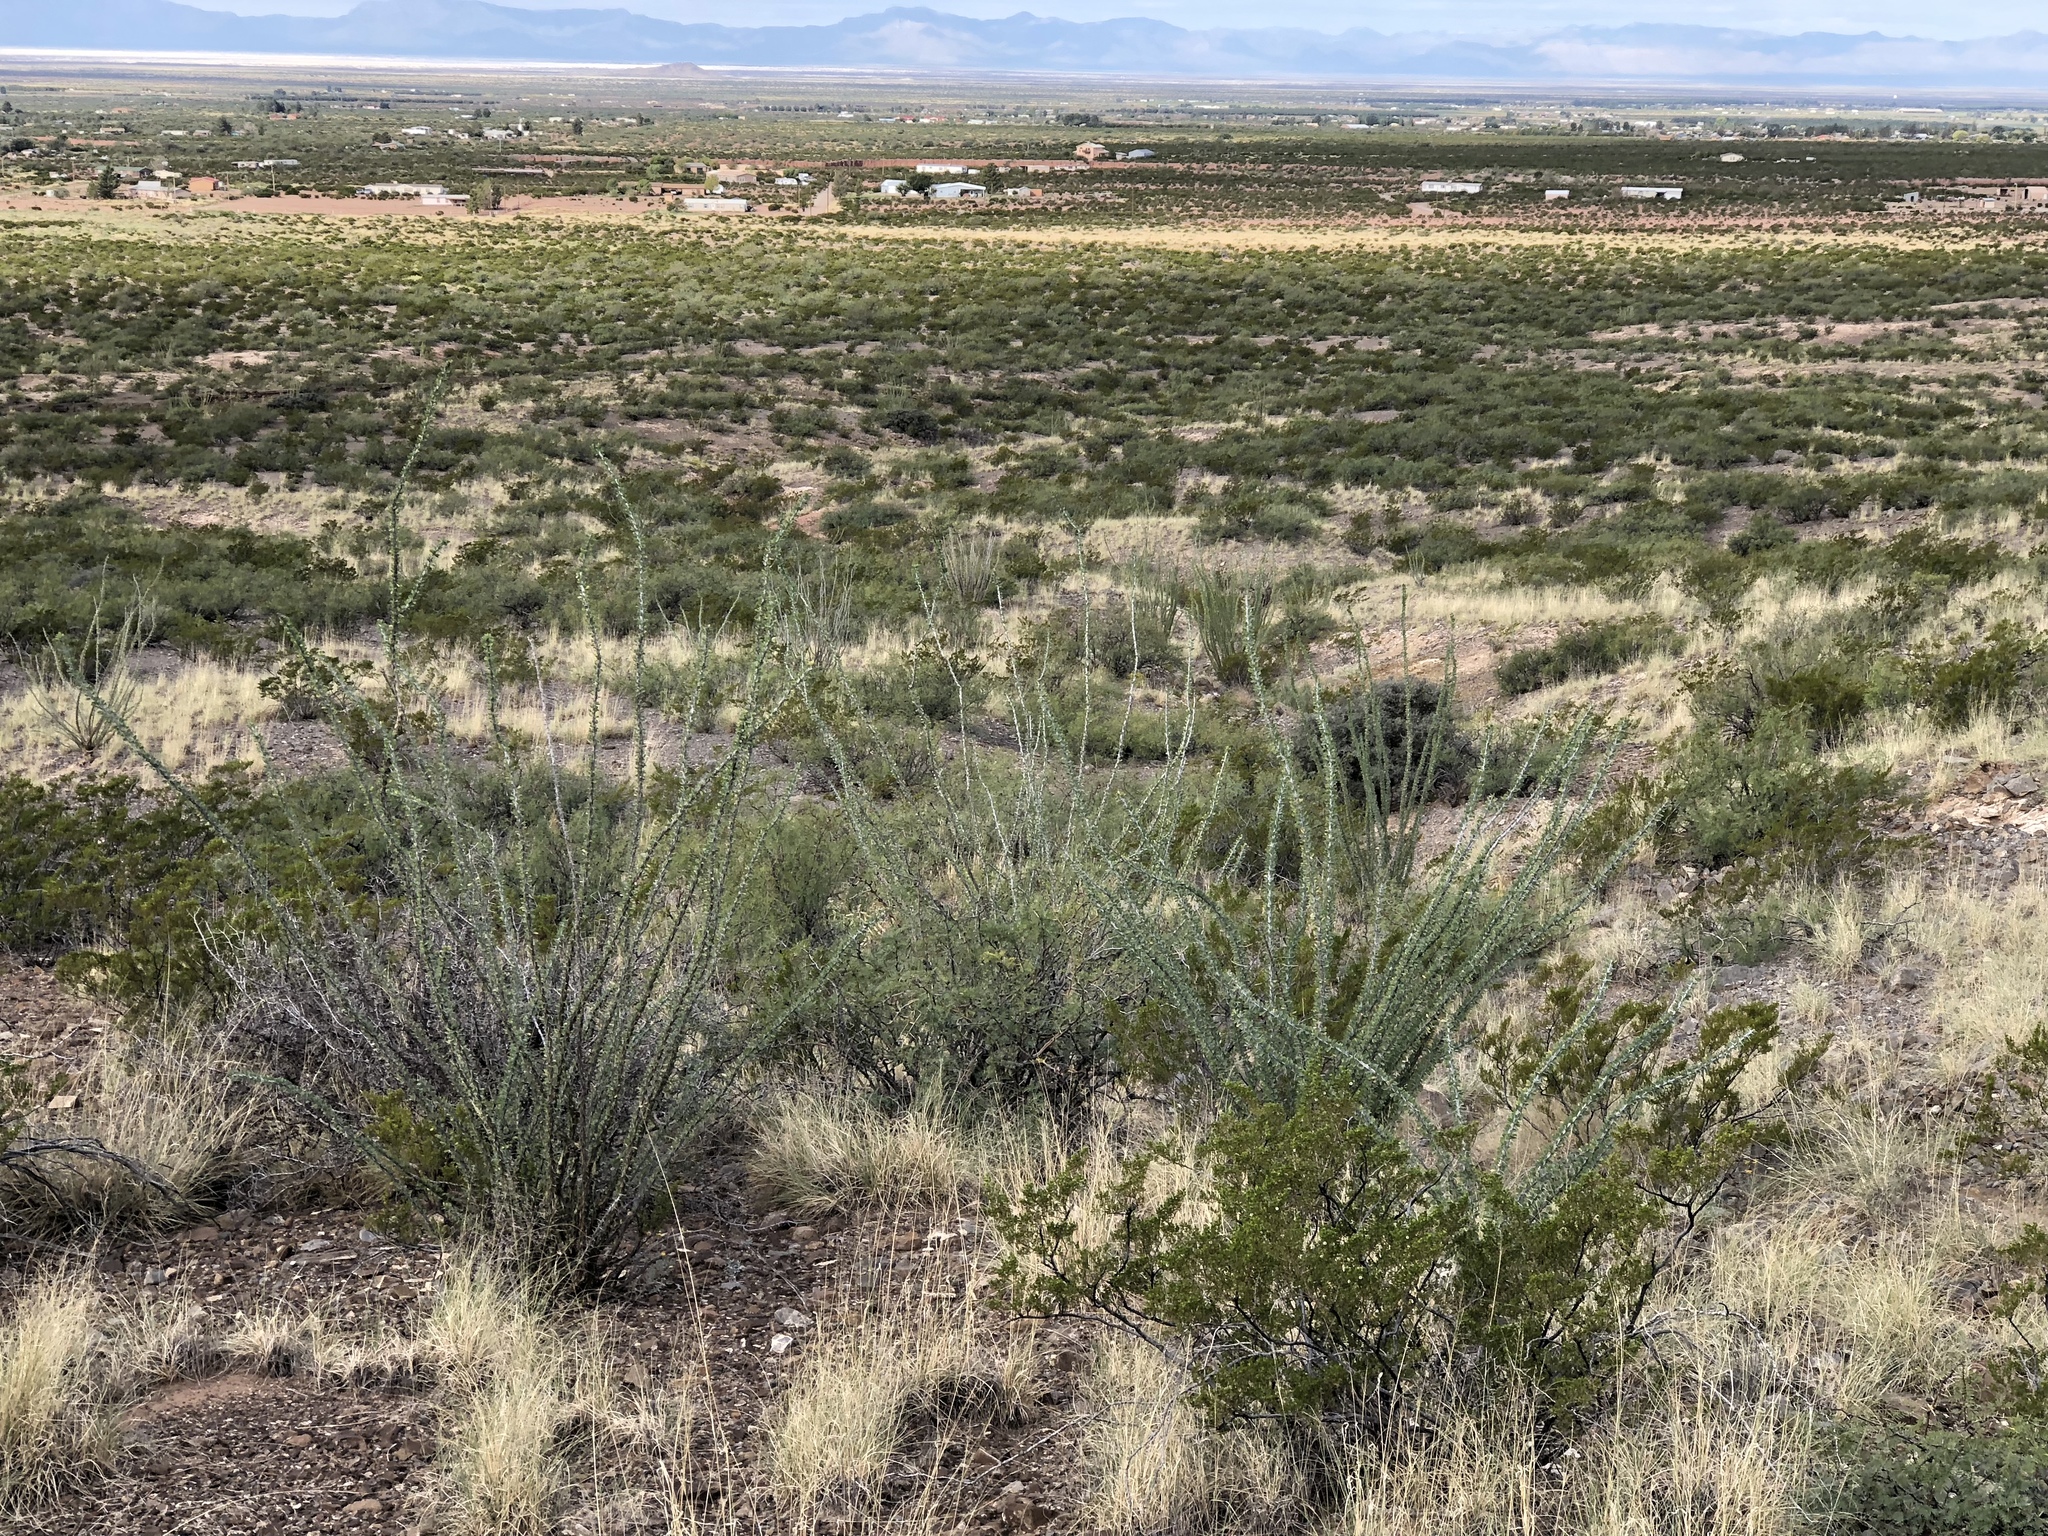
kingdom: Plantae
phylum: Tracheophyta
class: Magnoliopsida
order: Ericales
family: Fouquieriaceae
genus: Fouquieria
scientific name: Fouquieria splendens
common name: Vine-cactus
